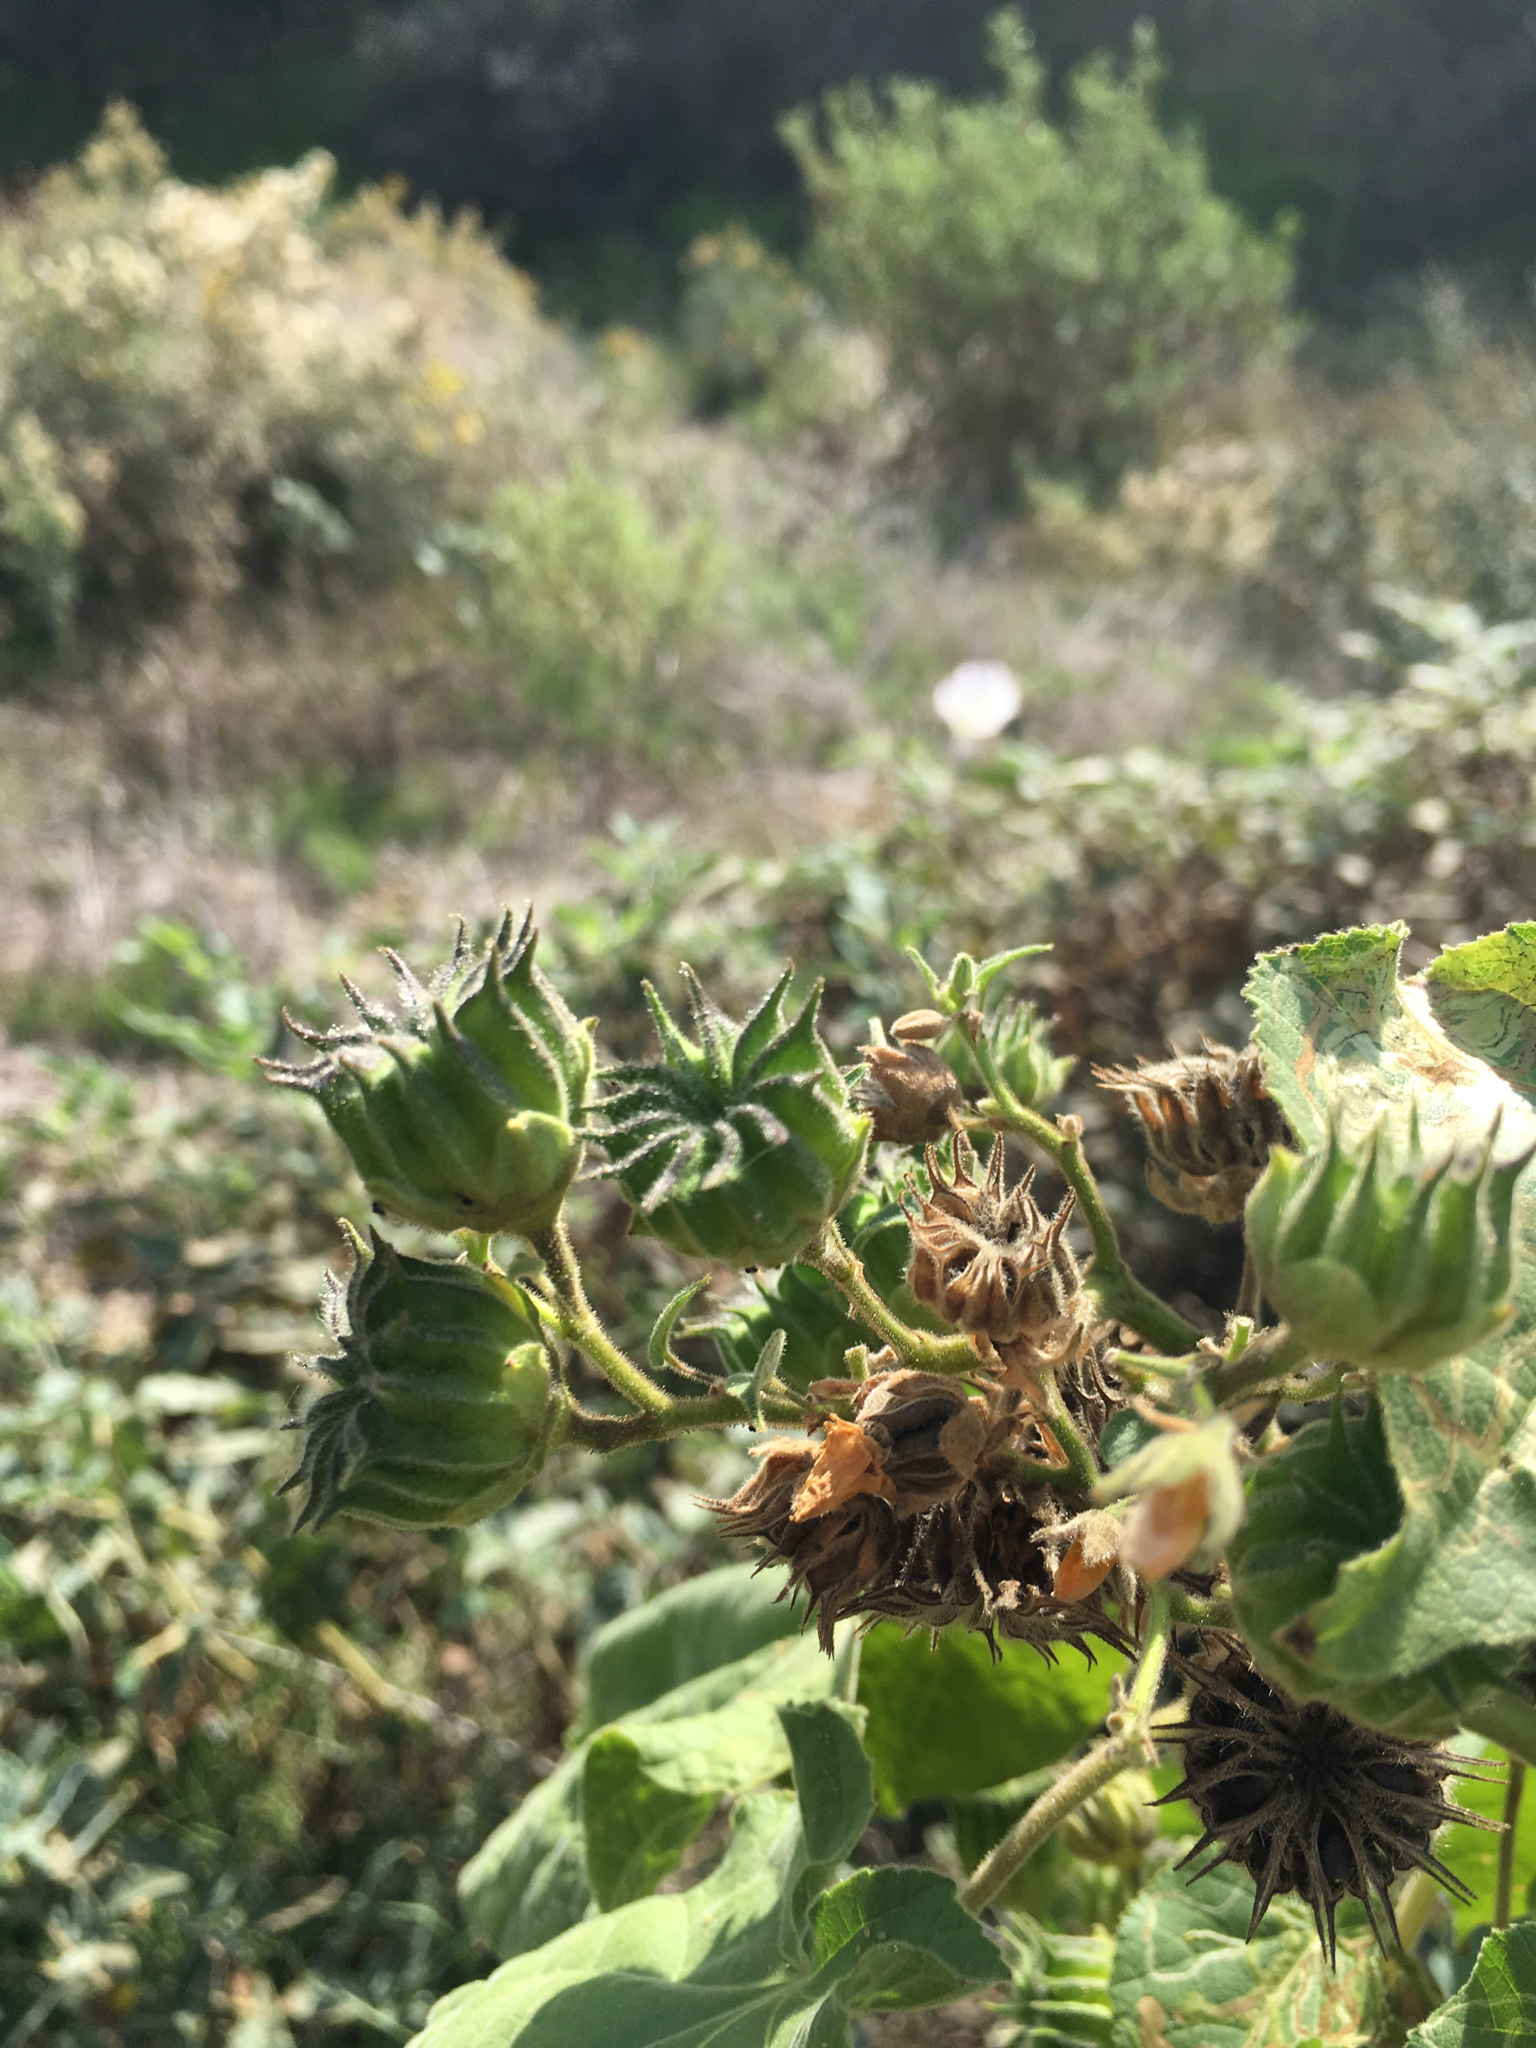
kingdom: Plantae
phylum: Tracheophyta
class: Magnoliopsida
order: Malvales
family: Malvaceae
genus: Abutilon
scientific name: Abutilon theophrasti
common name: Velvetleaf
